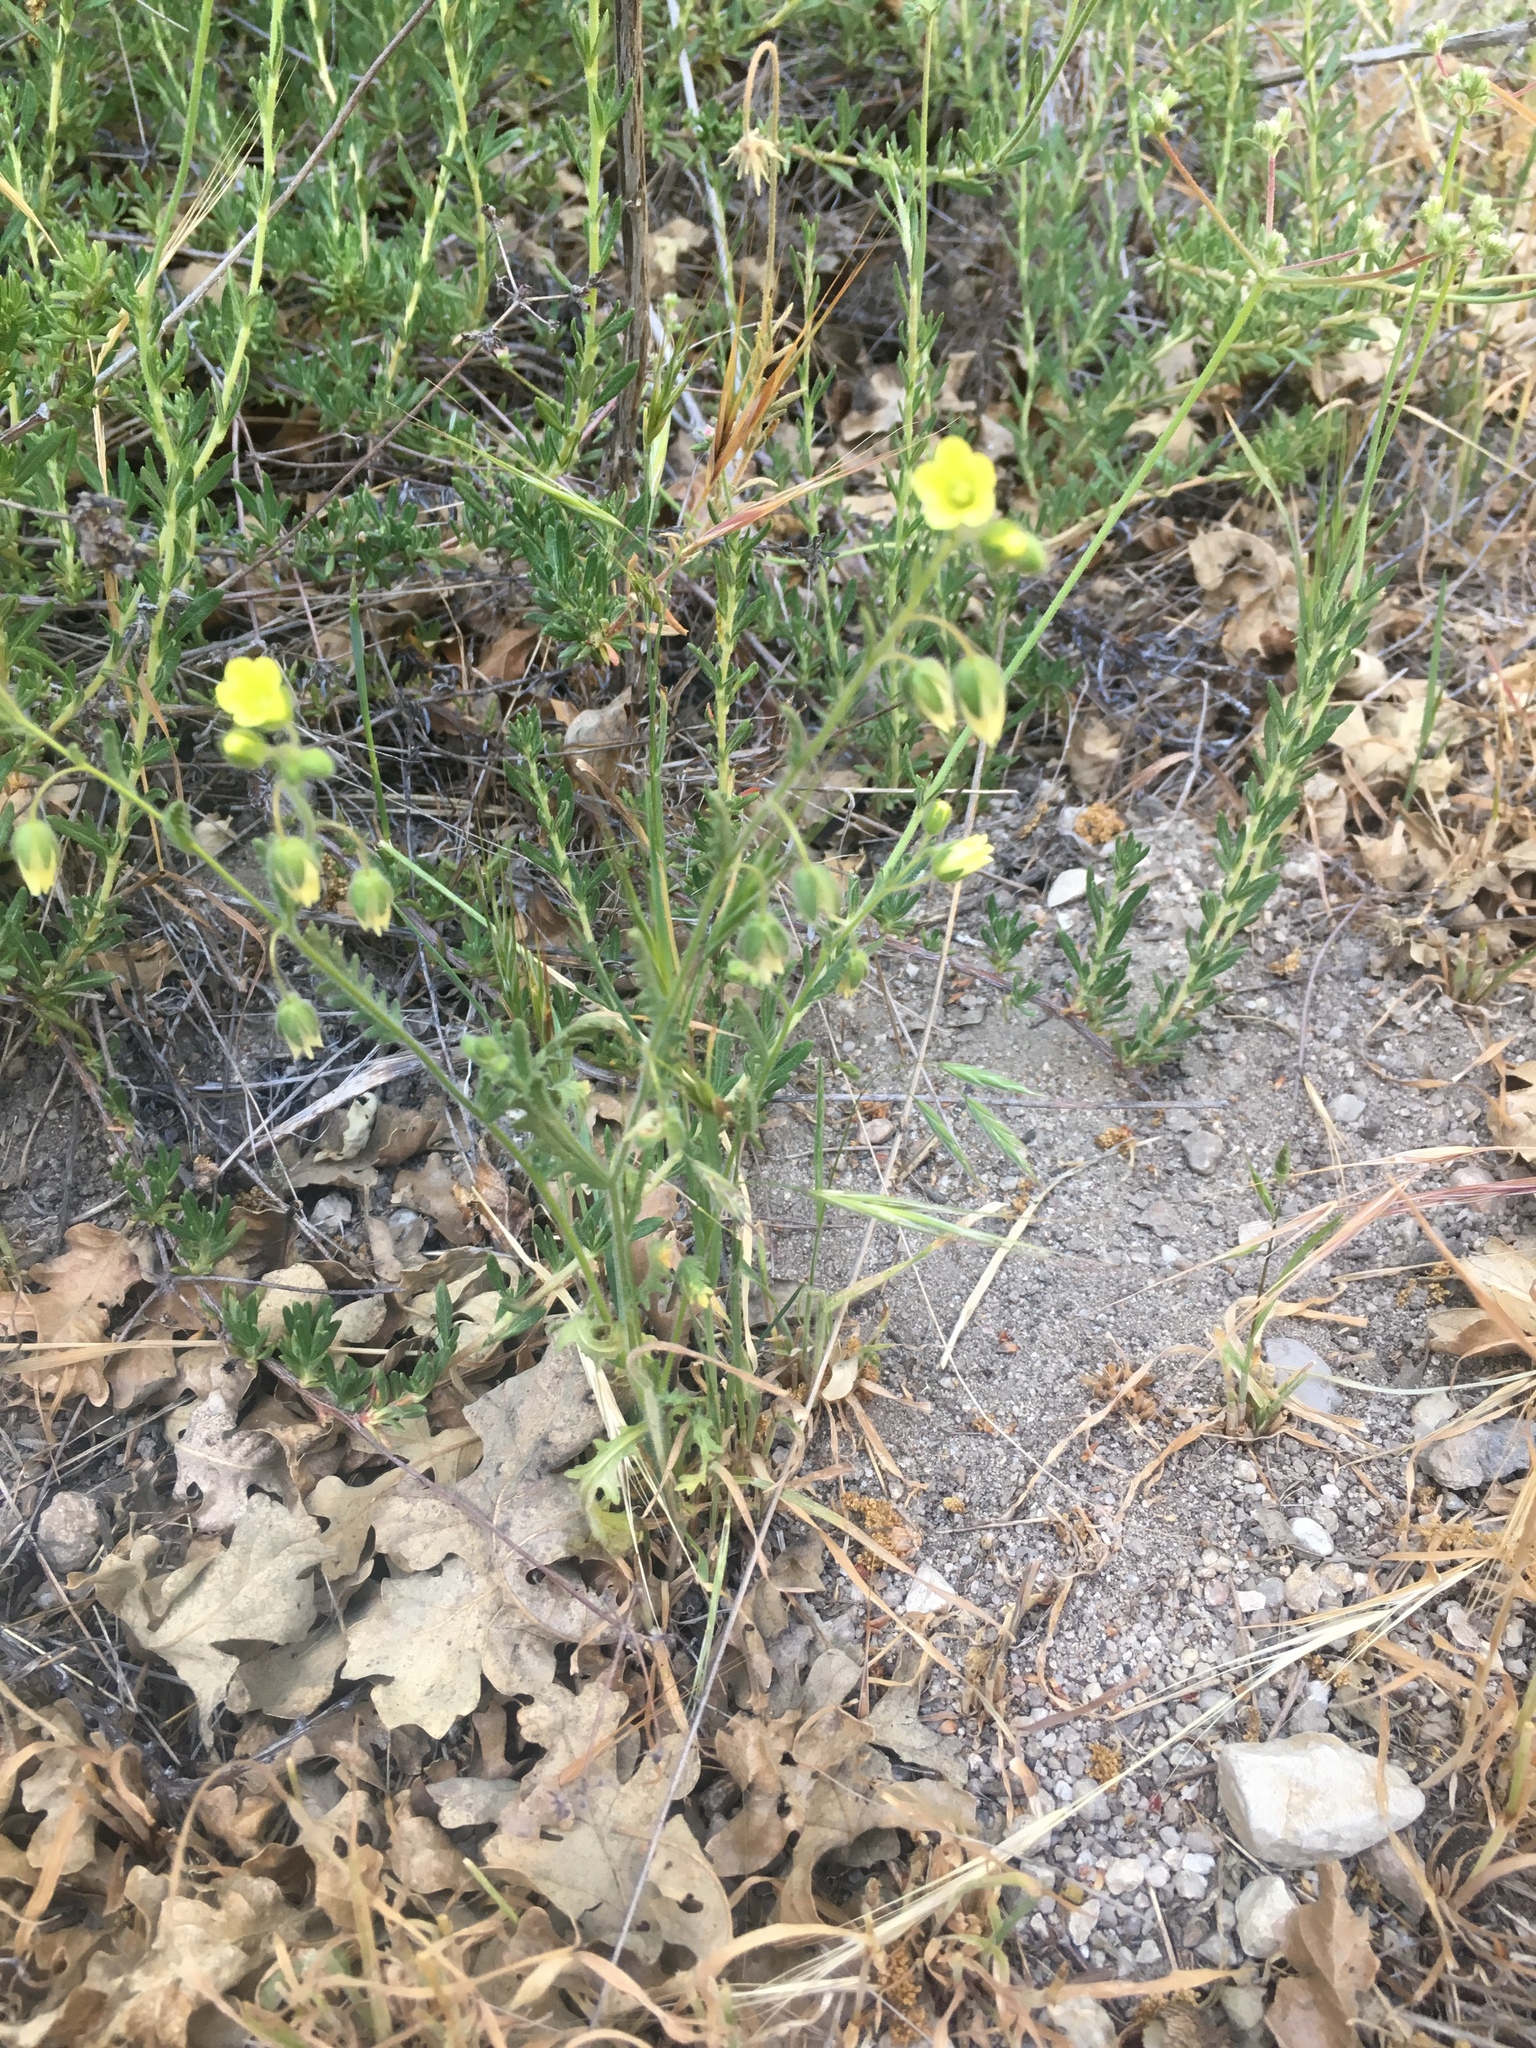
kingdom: Plantae
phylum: Tracheophyta
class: Magnoliopsida
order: Boraginales
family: Hydrophyllaceae
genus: Emmenanthe
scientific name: Emmenanthe penduliflora
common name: Whispering-bells
